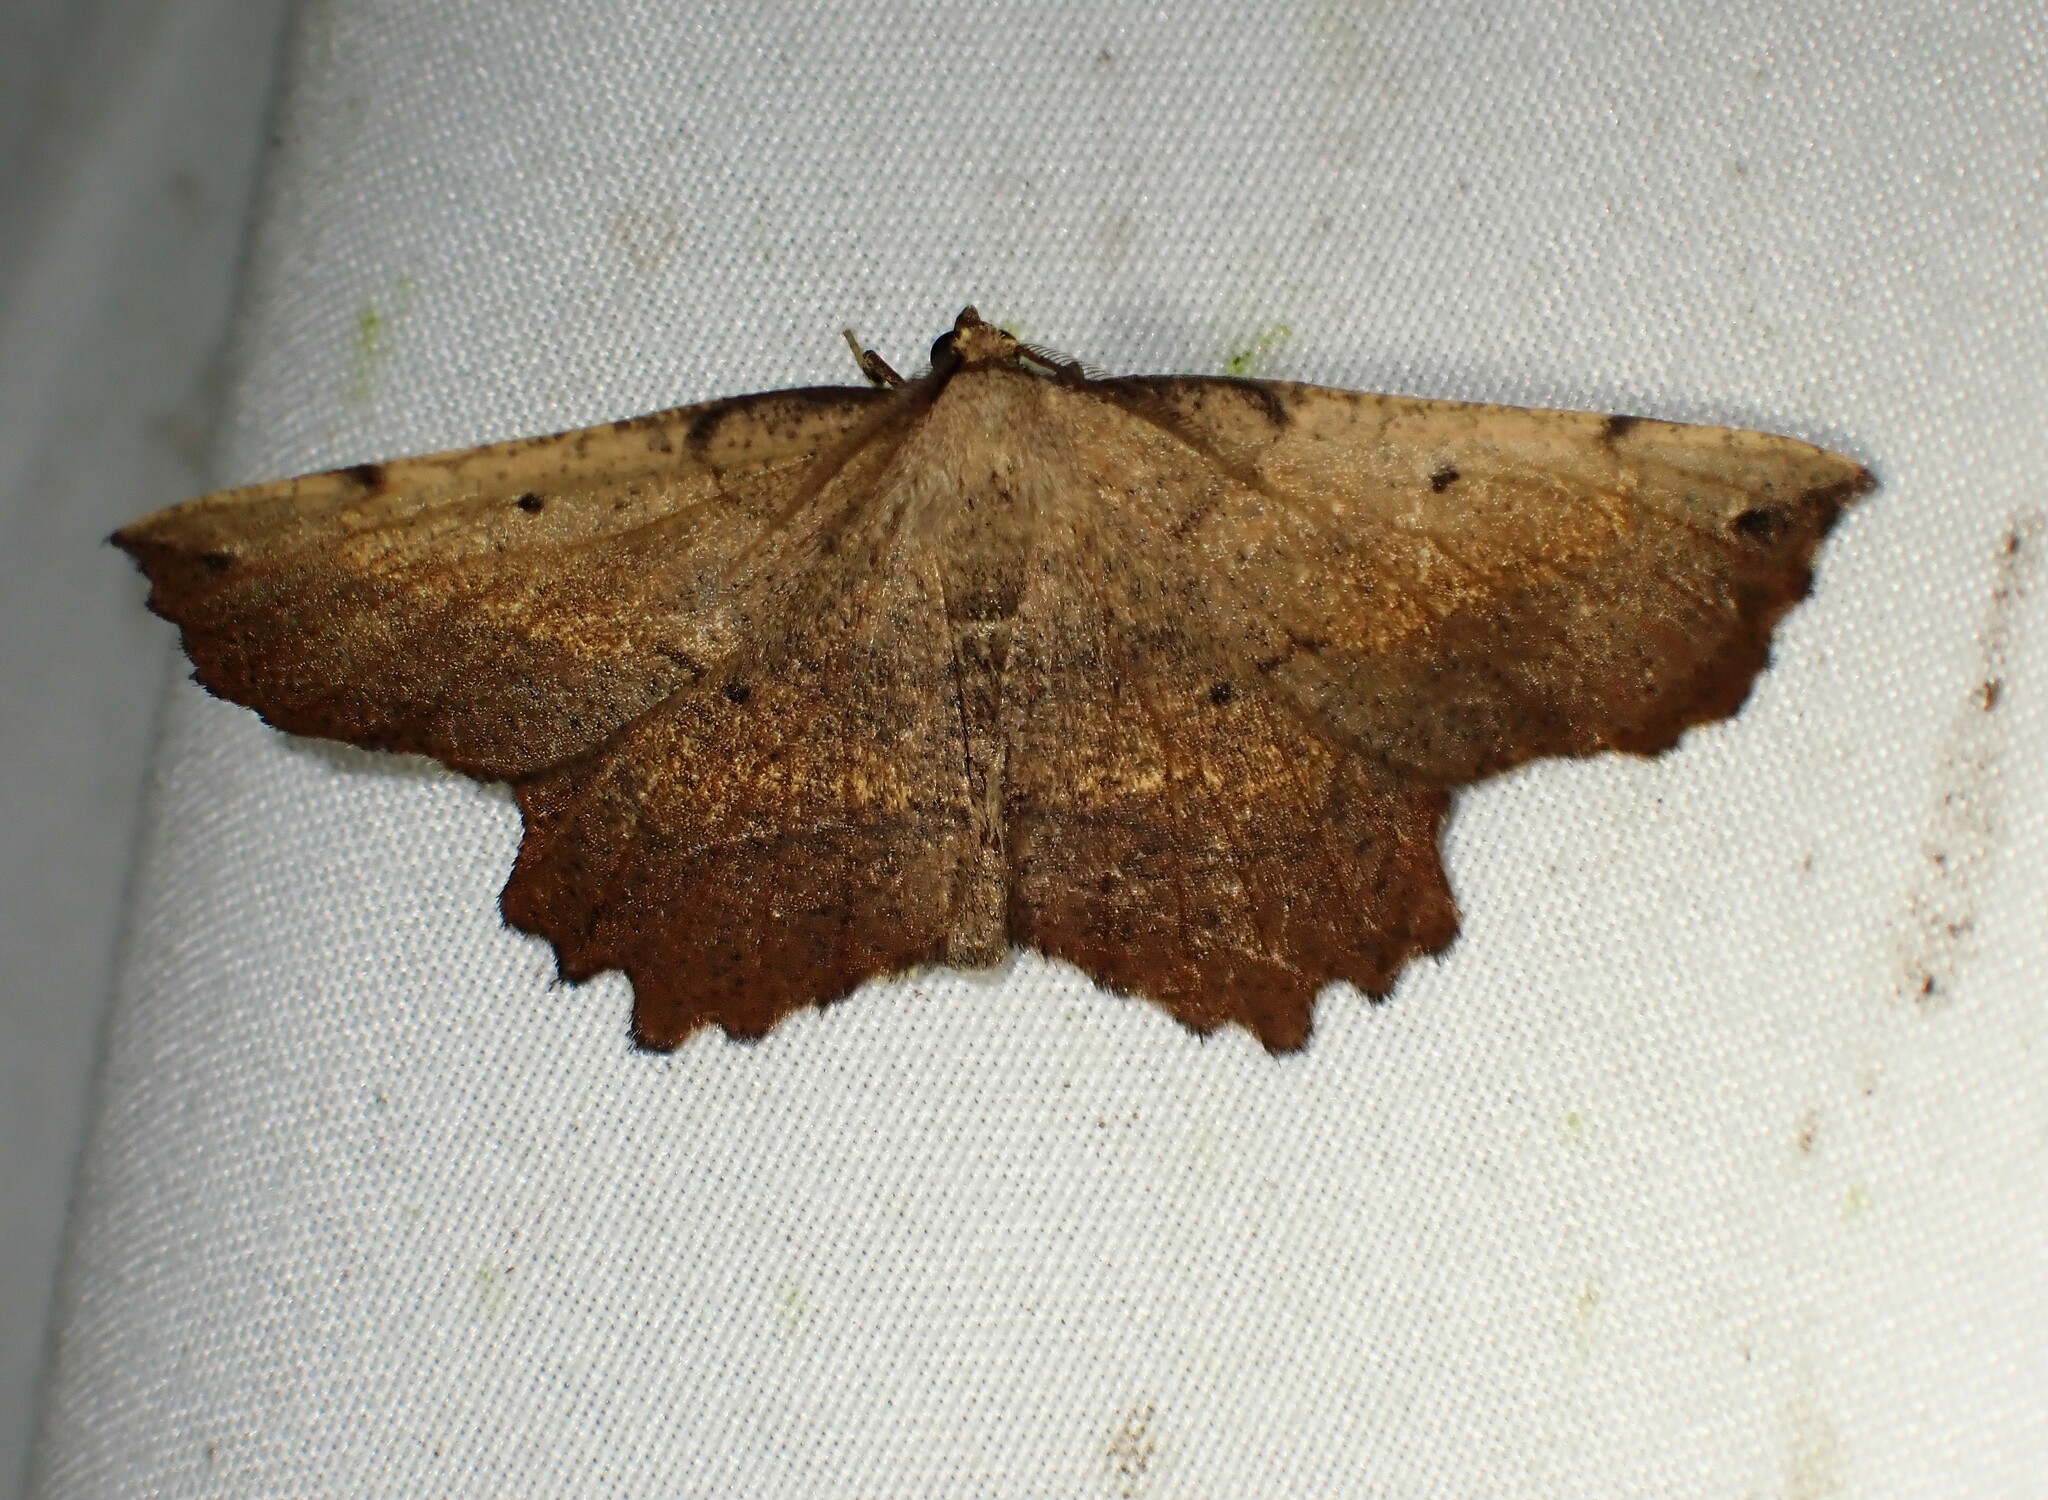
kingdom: Animalia
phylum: Arthropoda
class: Insecta
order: Lepidoptera
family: Geometridae
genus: Euchlaena
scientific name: Euchlaena muzaria
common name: Muzaria euchlaena
